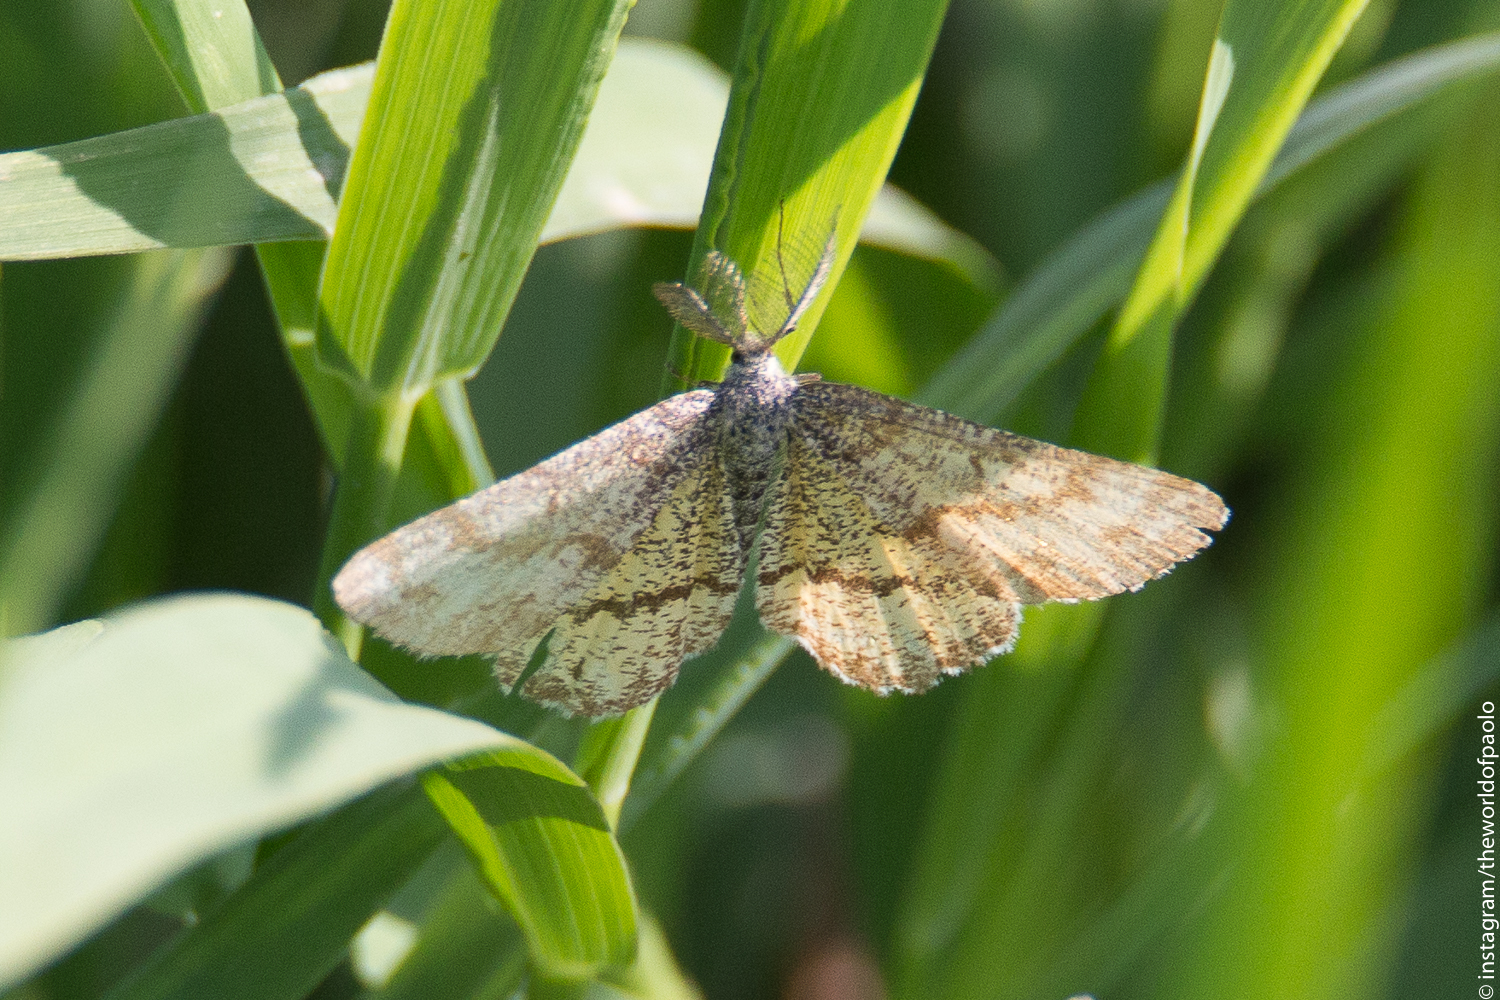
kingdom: Animalia
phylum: Arthropoda
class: Insecta
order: Lepidoptera
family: Geometridae
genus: Ematurga
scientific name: Ematurga atomaria
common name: Common heath
